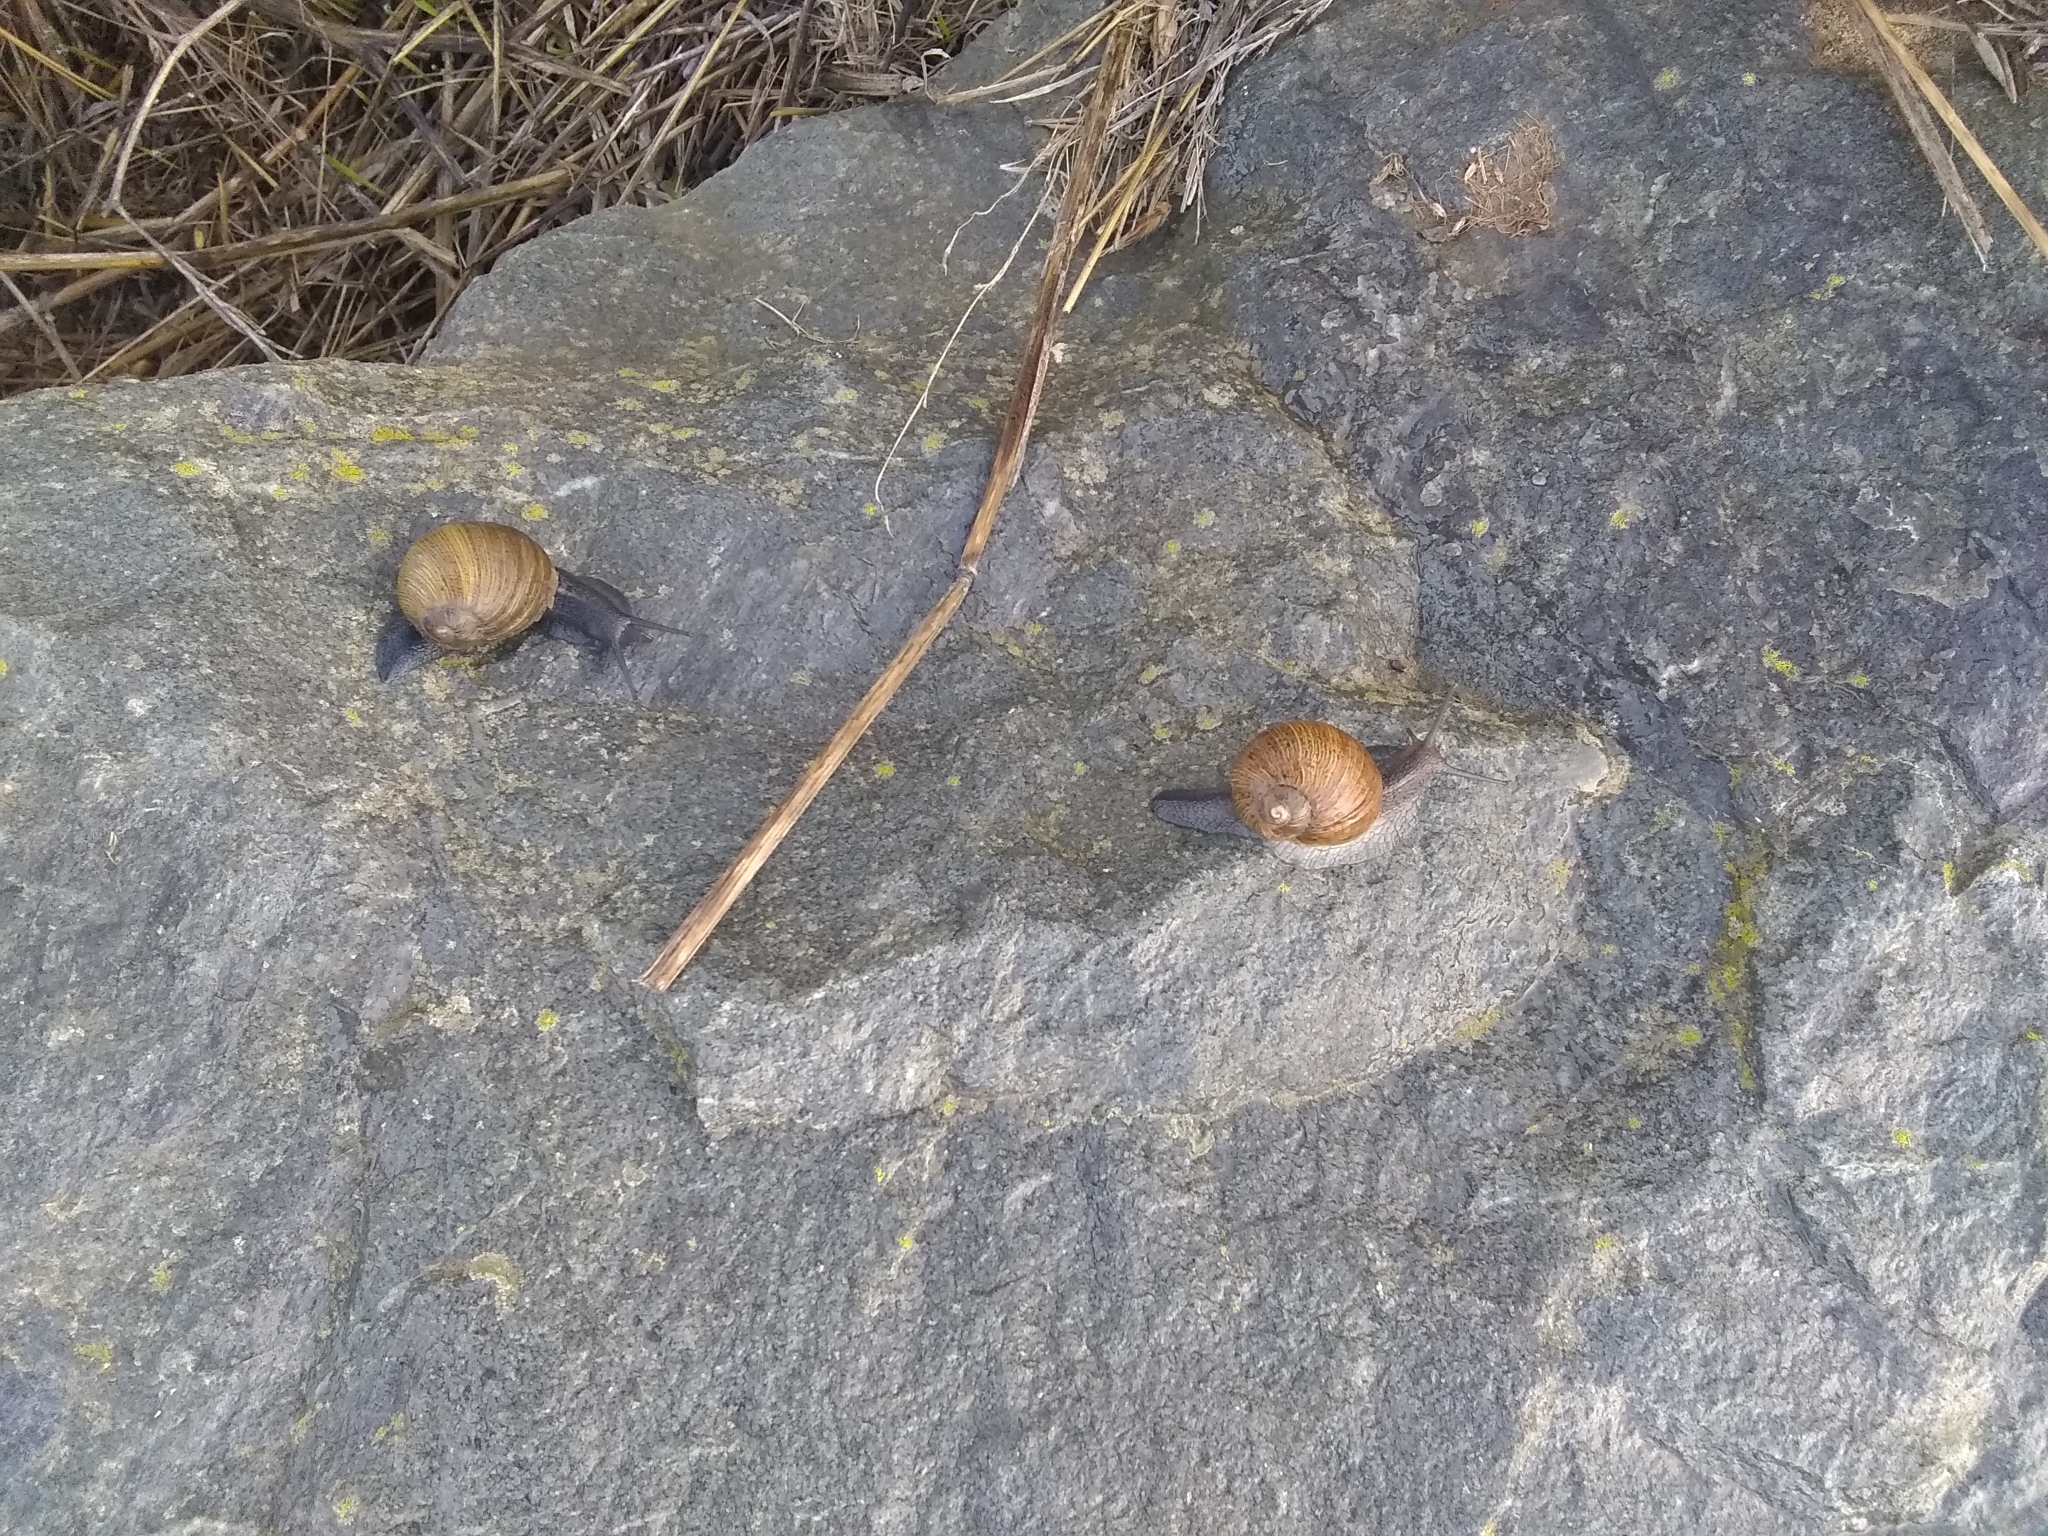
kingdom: Animalia
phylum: Mollusca
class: Gastropoda
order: Stylommatophora
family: Helicidae
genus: Cantareus
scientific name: Cantareus apertus
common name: Green gardensnail
